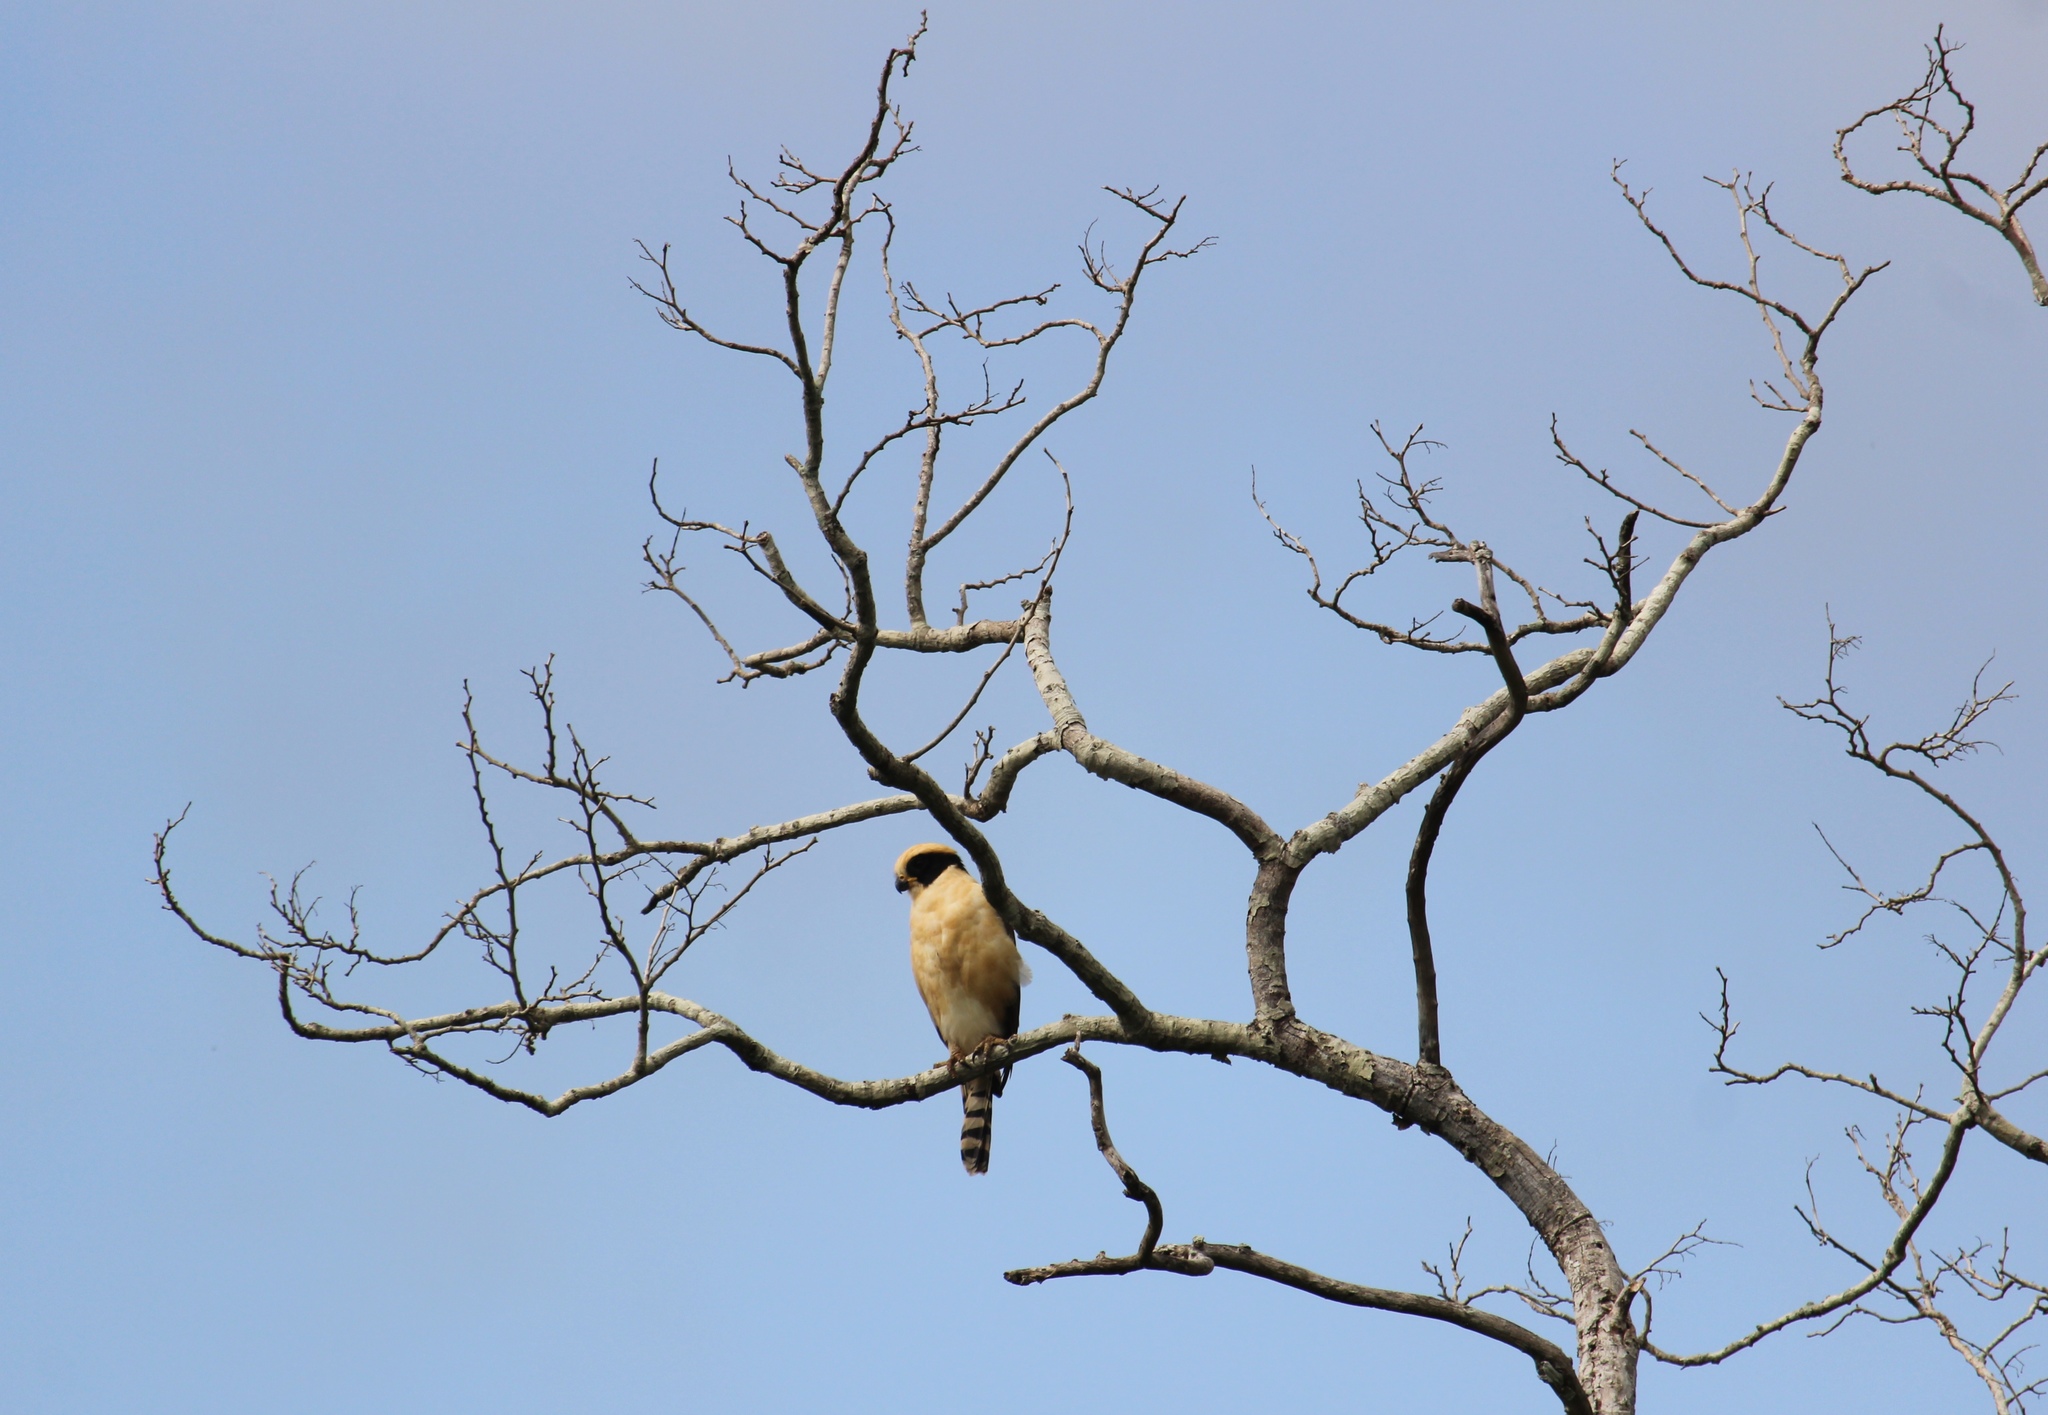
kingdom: Animalia
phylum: Chordata
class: Aves
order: Falconiformes
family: Falconidae
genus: Herpetotheres
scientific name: Herpetotheres cachinnans
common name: Laughing falcon
